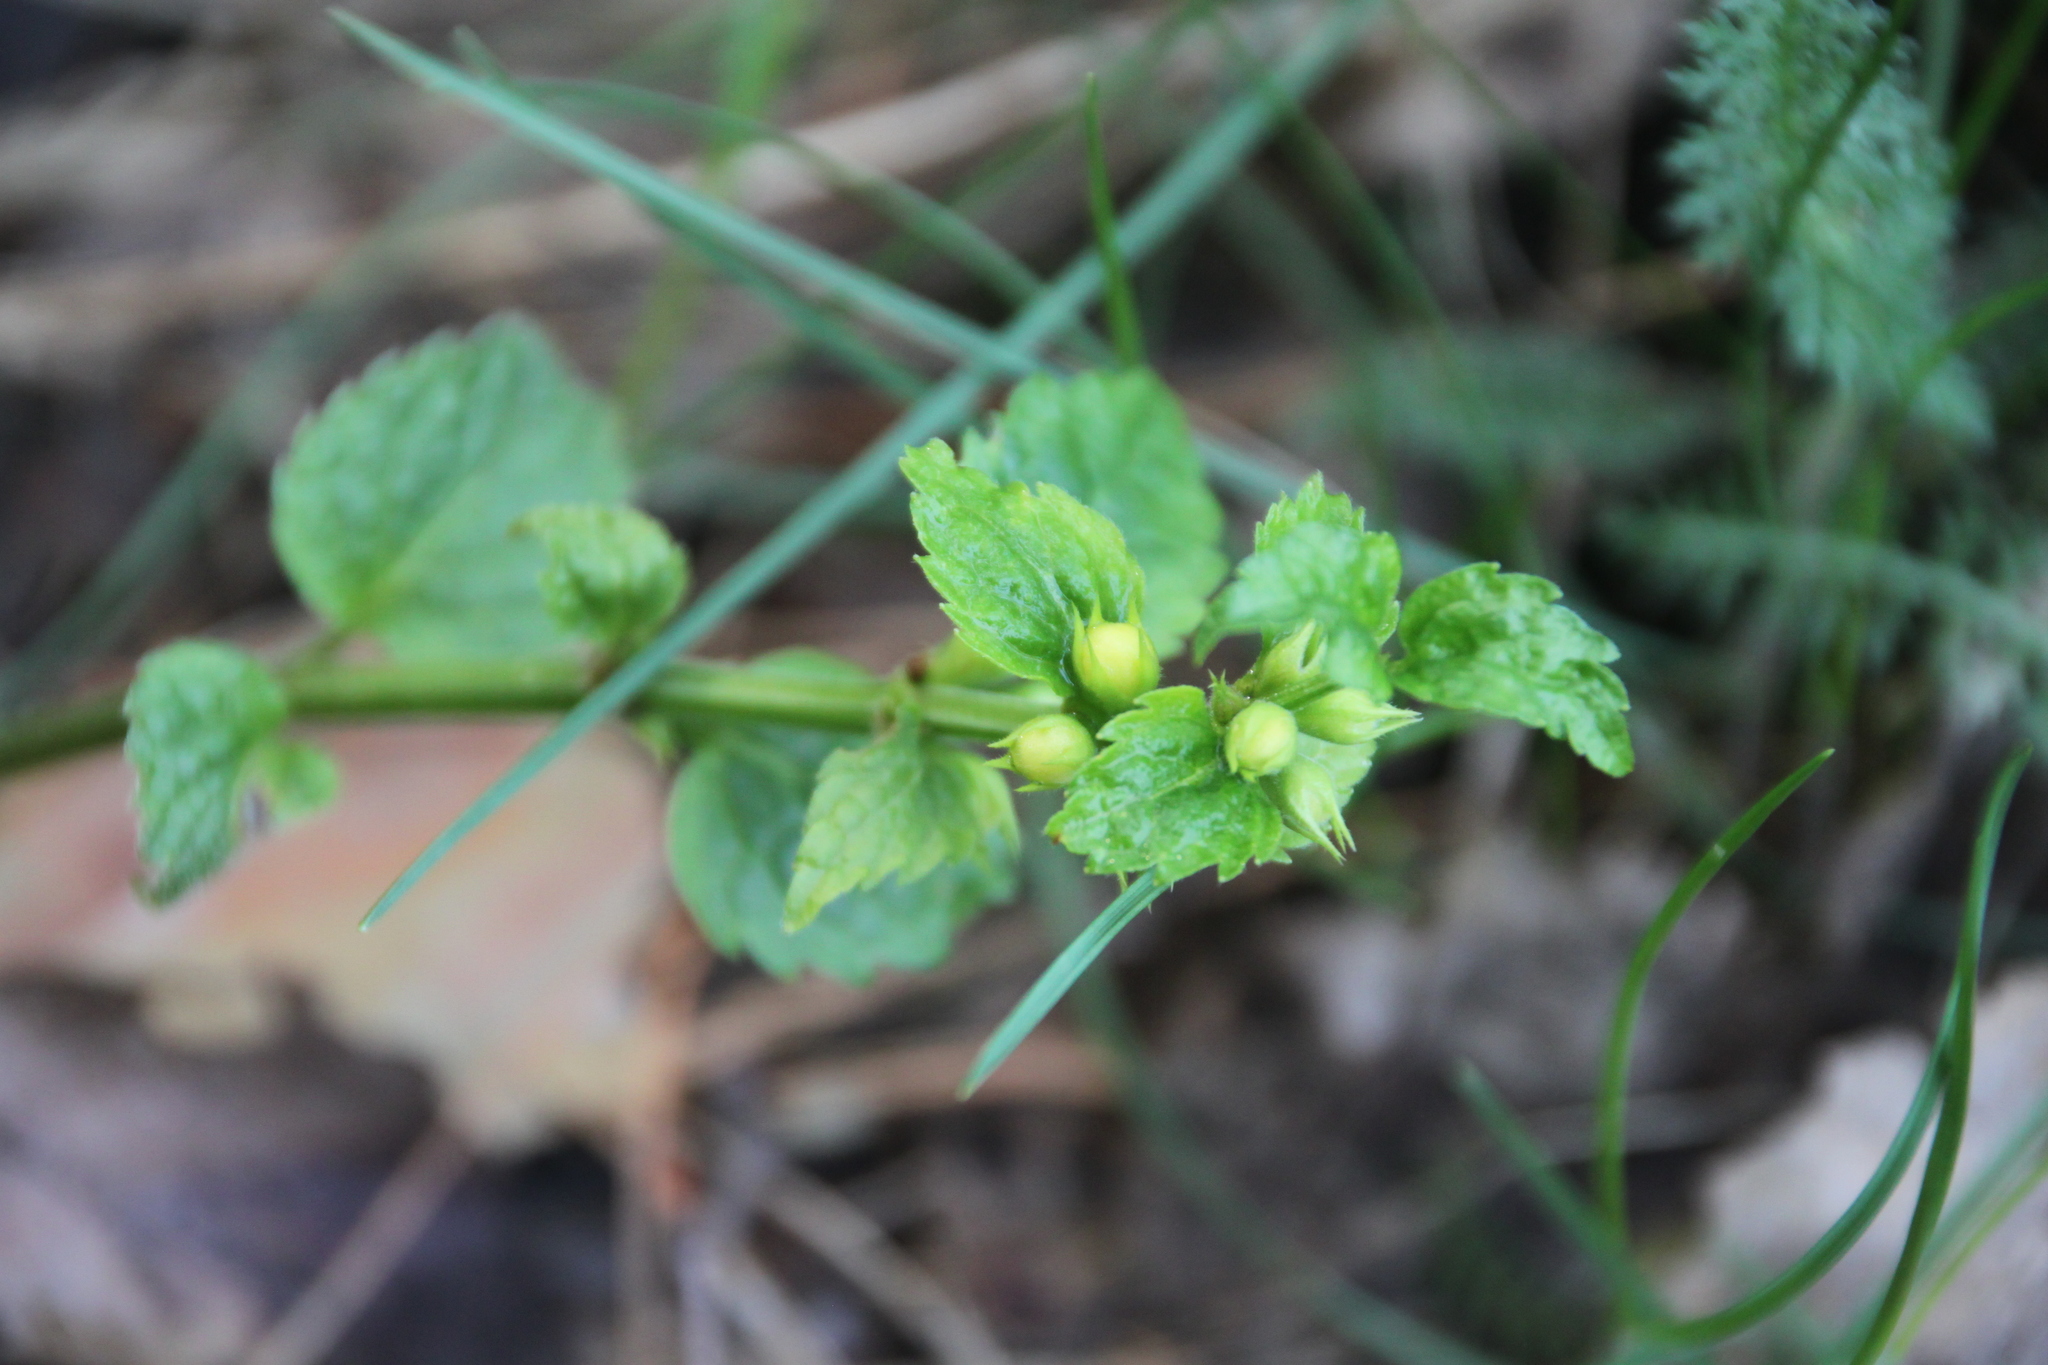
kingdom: Plantae
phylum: Tracheophyta
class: Magnoliopsida
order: Lamiales
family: Lamiaceae
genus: Lamium
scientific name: Lamium galeobdolon
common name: Yellow archangel
